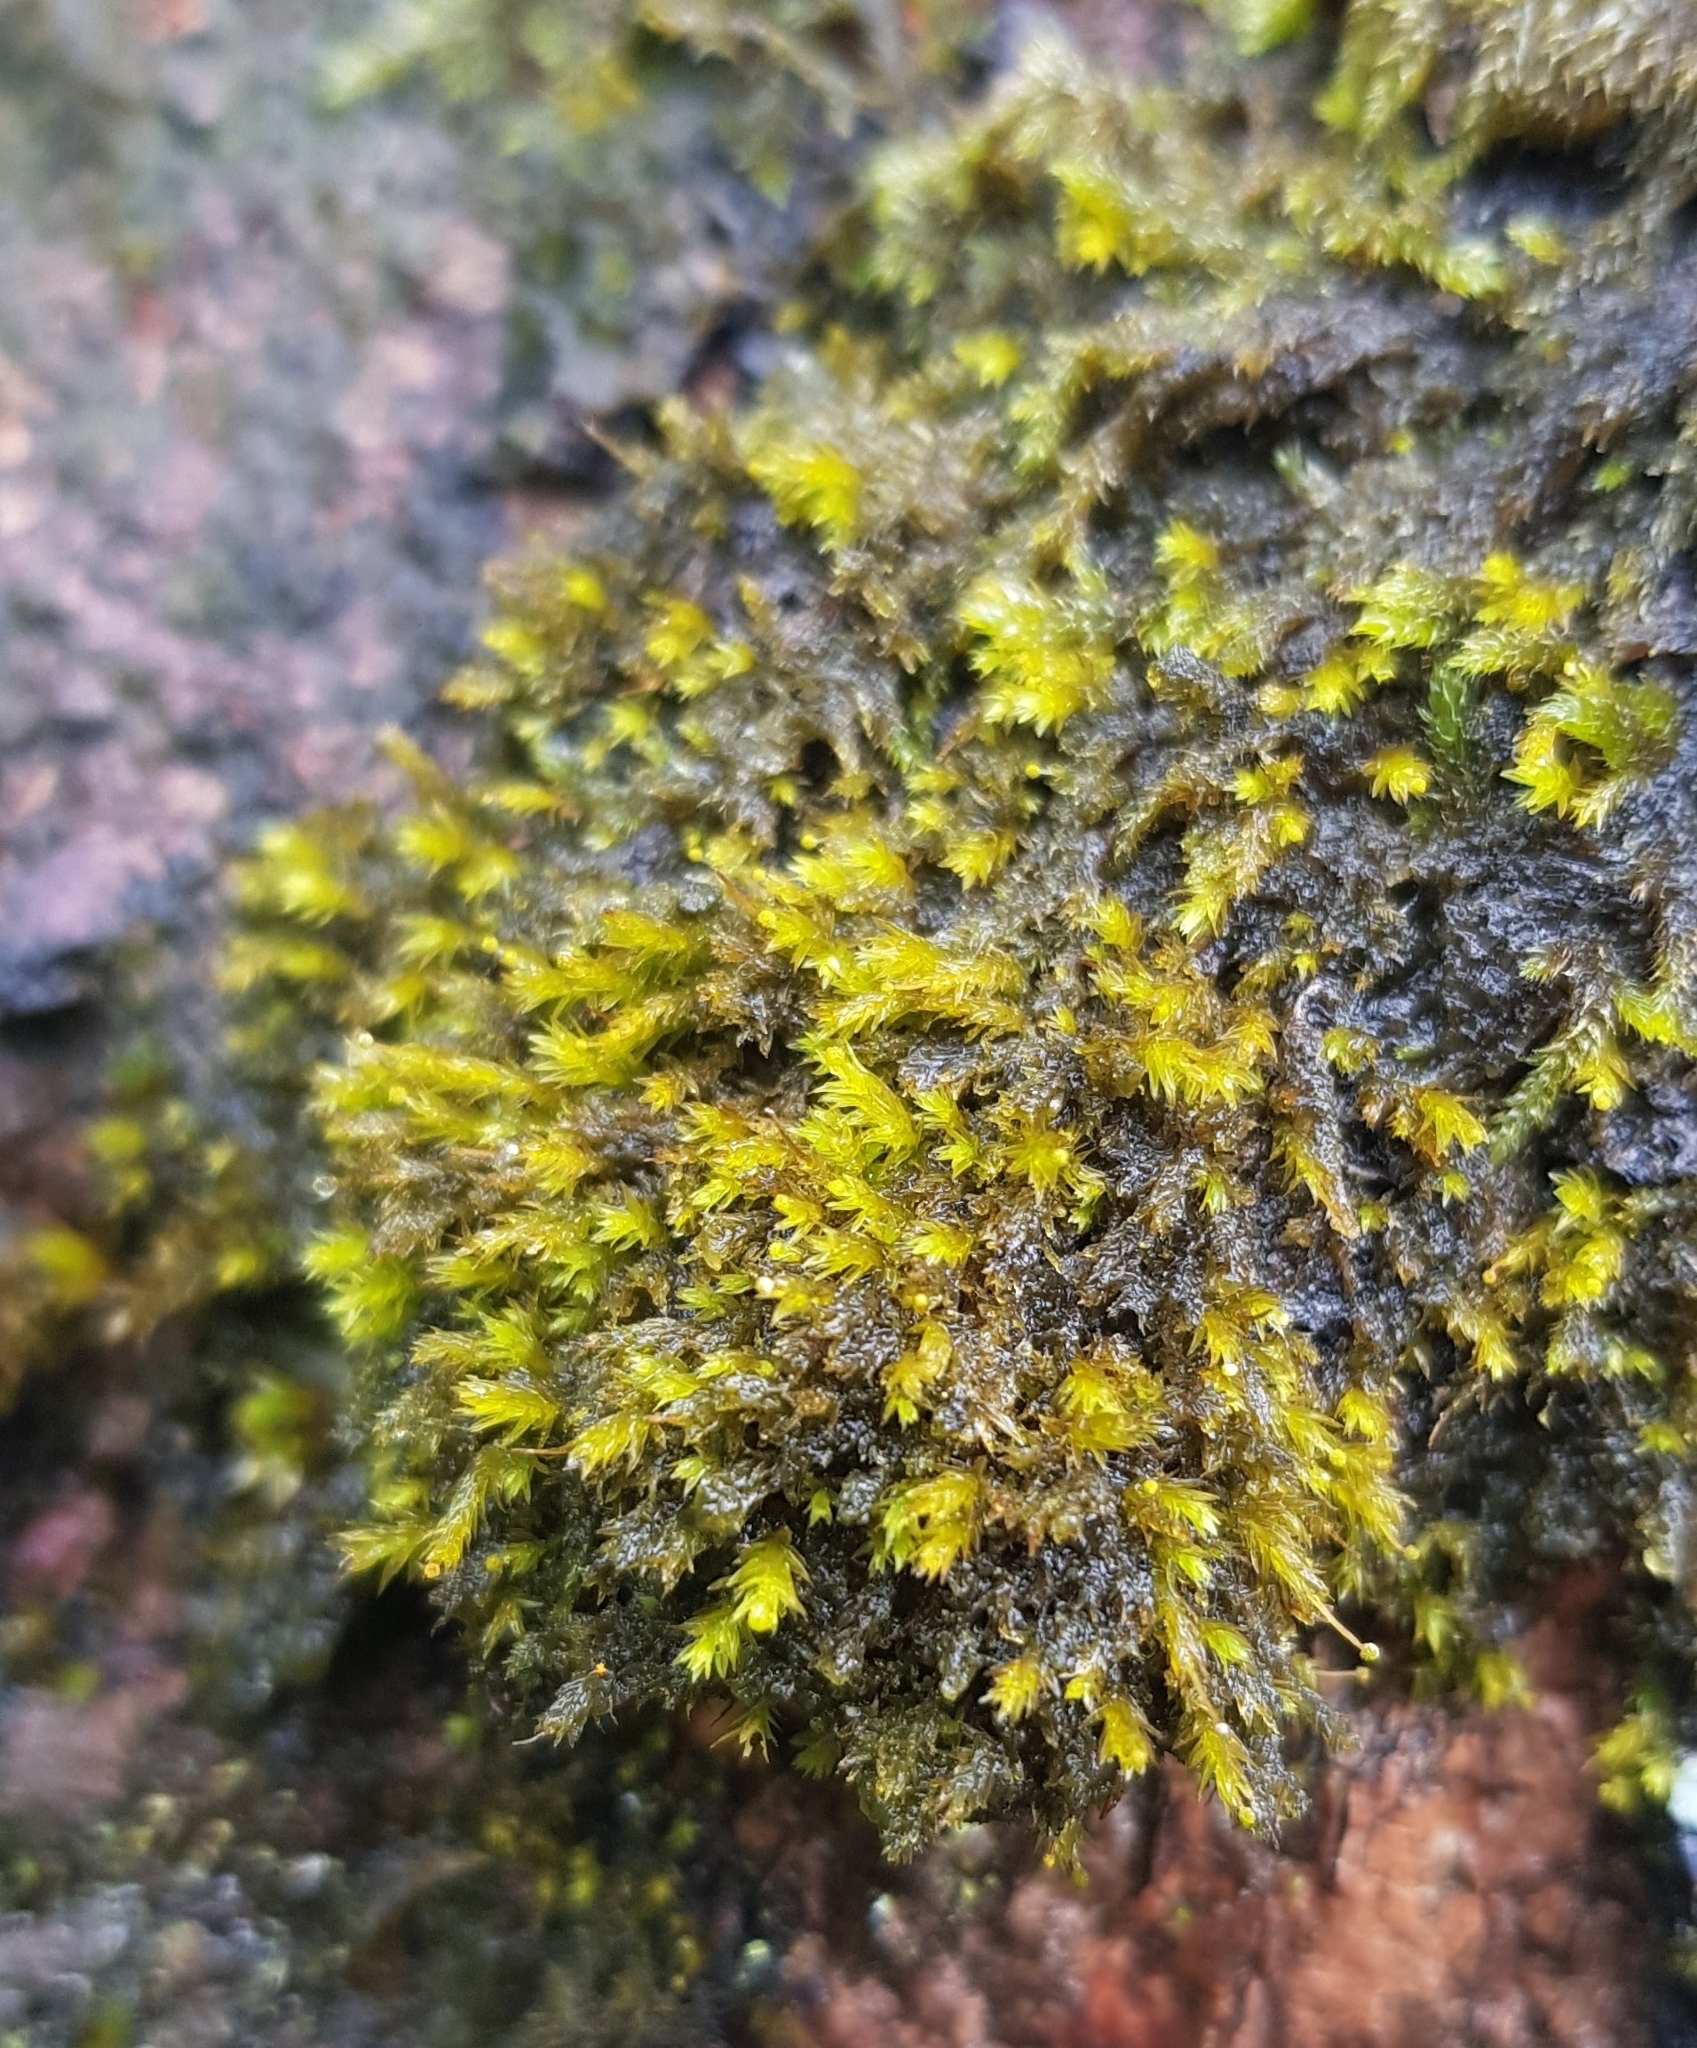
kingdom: Plantae
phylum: Bryophyta
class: Bryopsida
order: Aulacomniales
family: Aulacomniaceae
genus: Aulacomnium
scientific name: Aulacomnium androgynum
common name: Little groove moss
